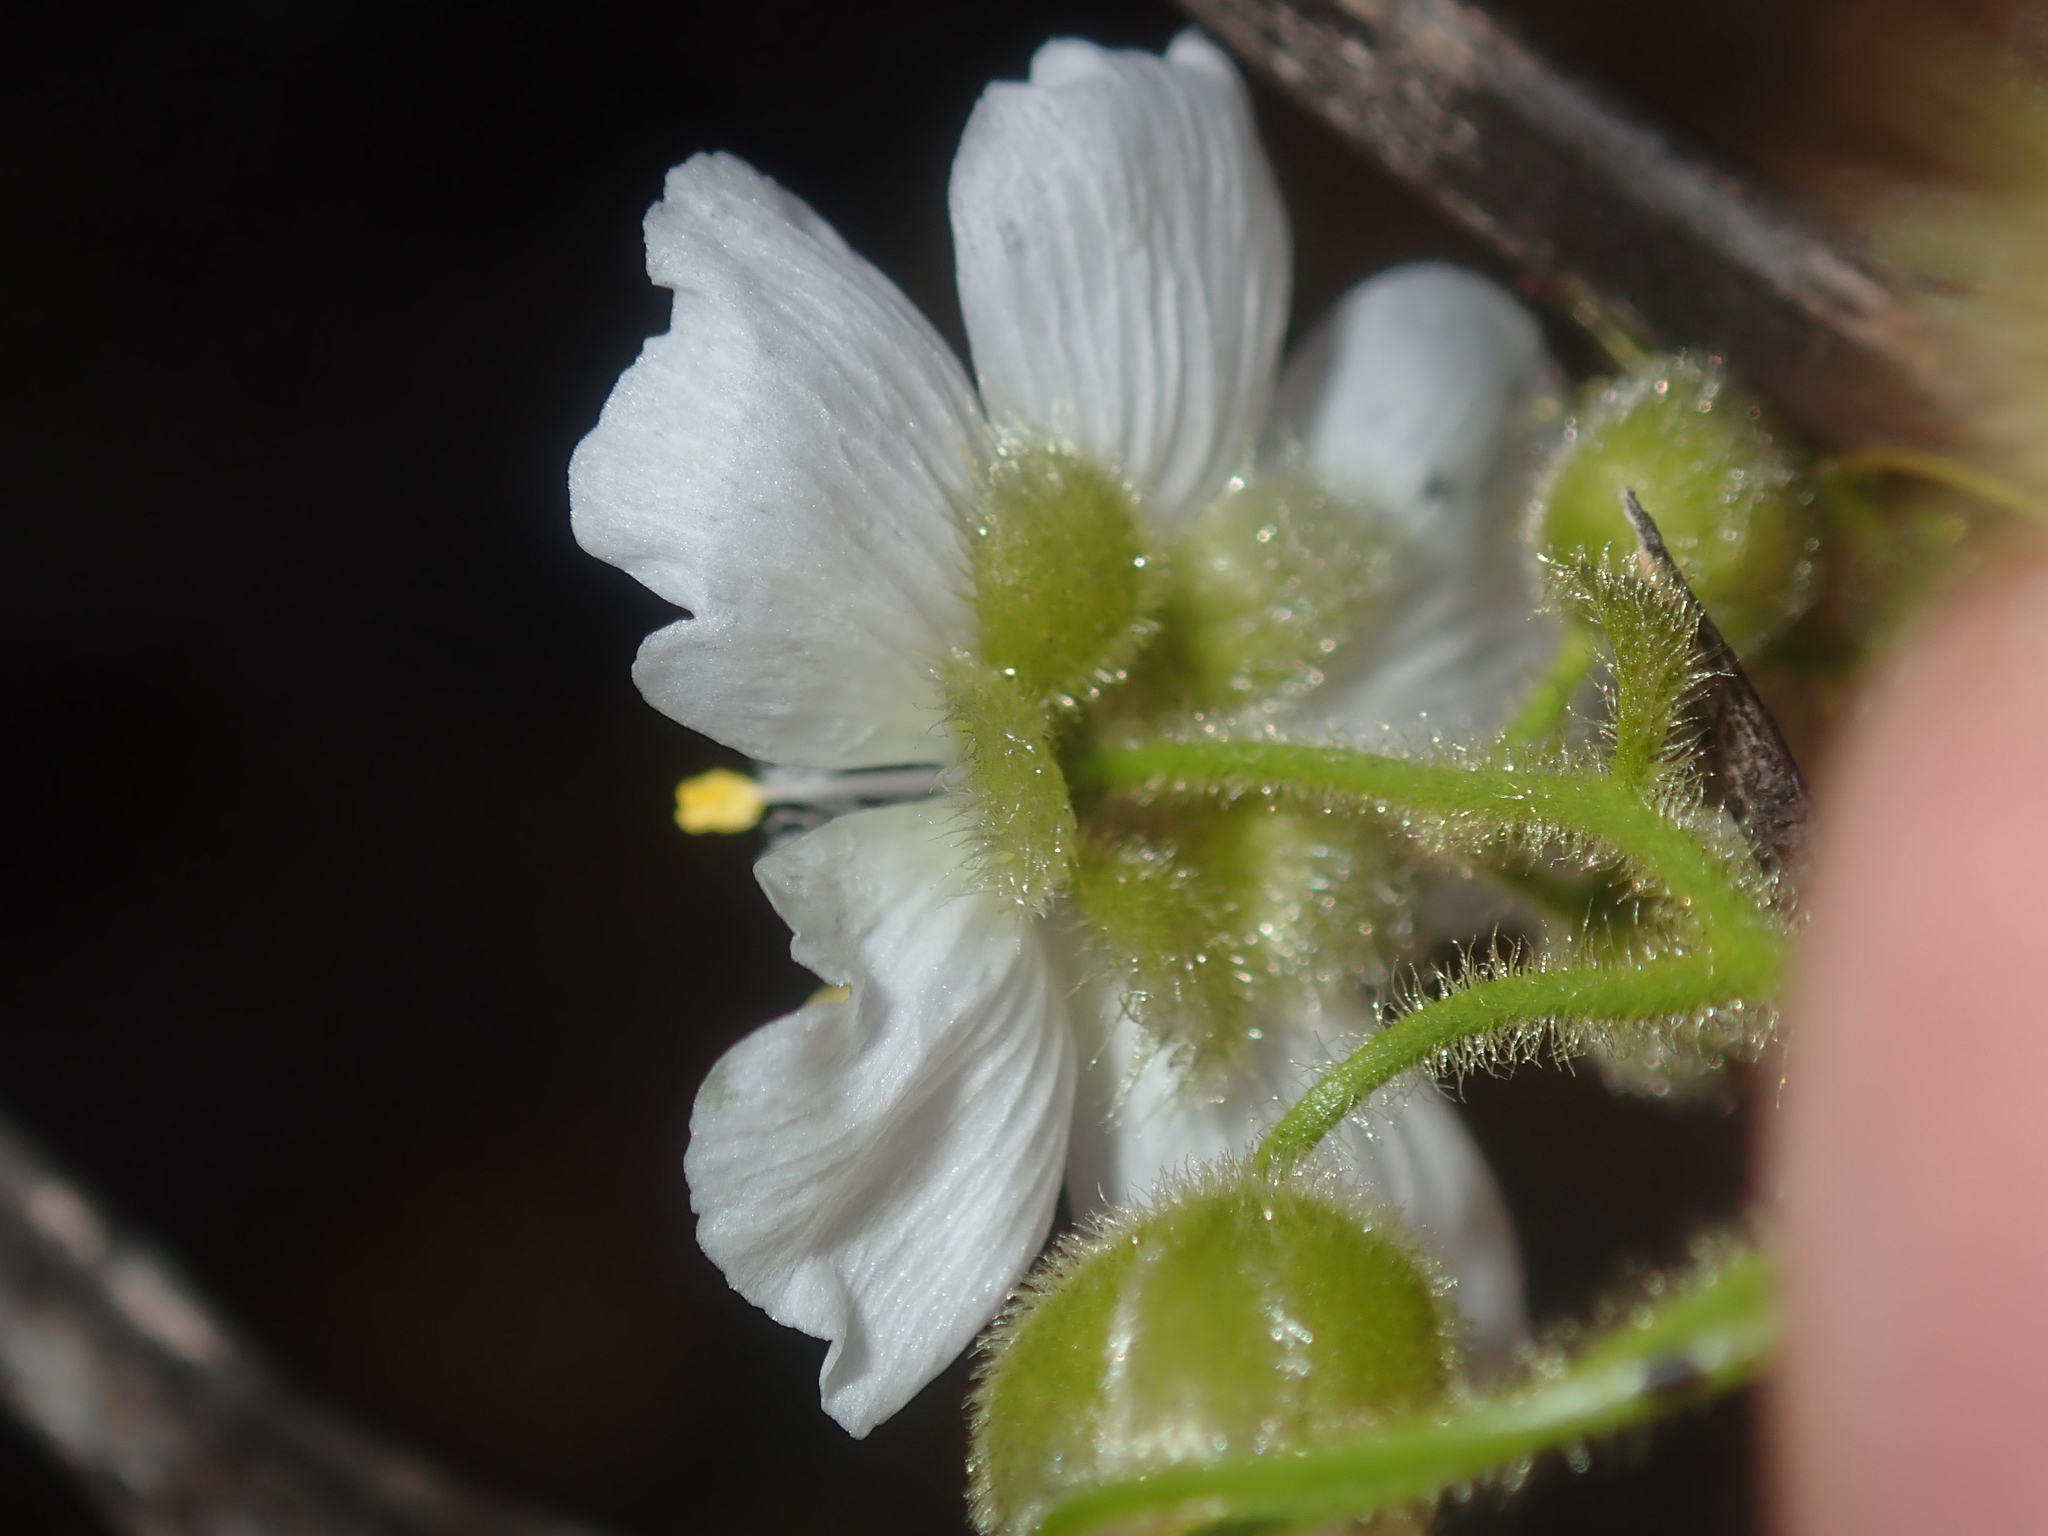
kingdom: Plantae
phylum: Tracheophyta
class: Magnoliopsida
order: Caryophyllales
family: Droseraceae
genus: Drosera
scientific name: Drosera hirsuta
